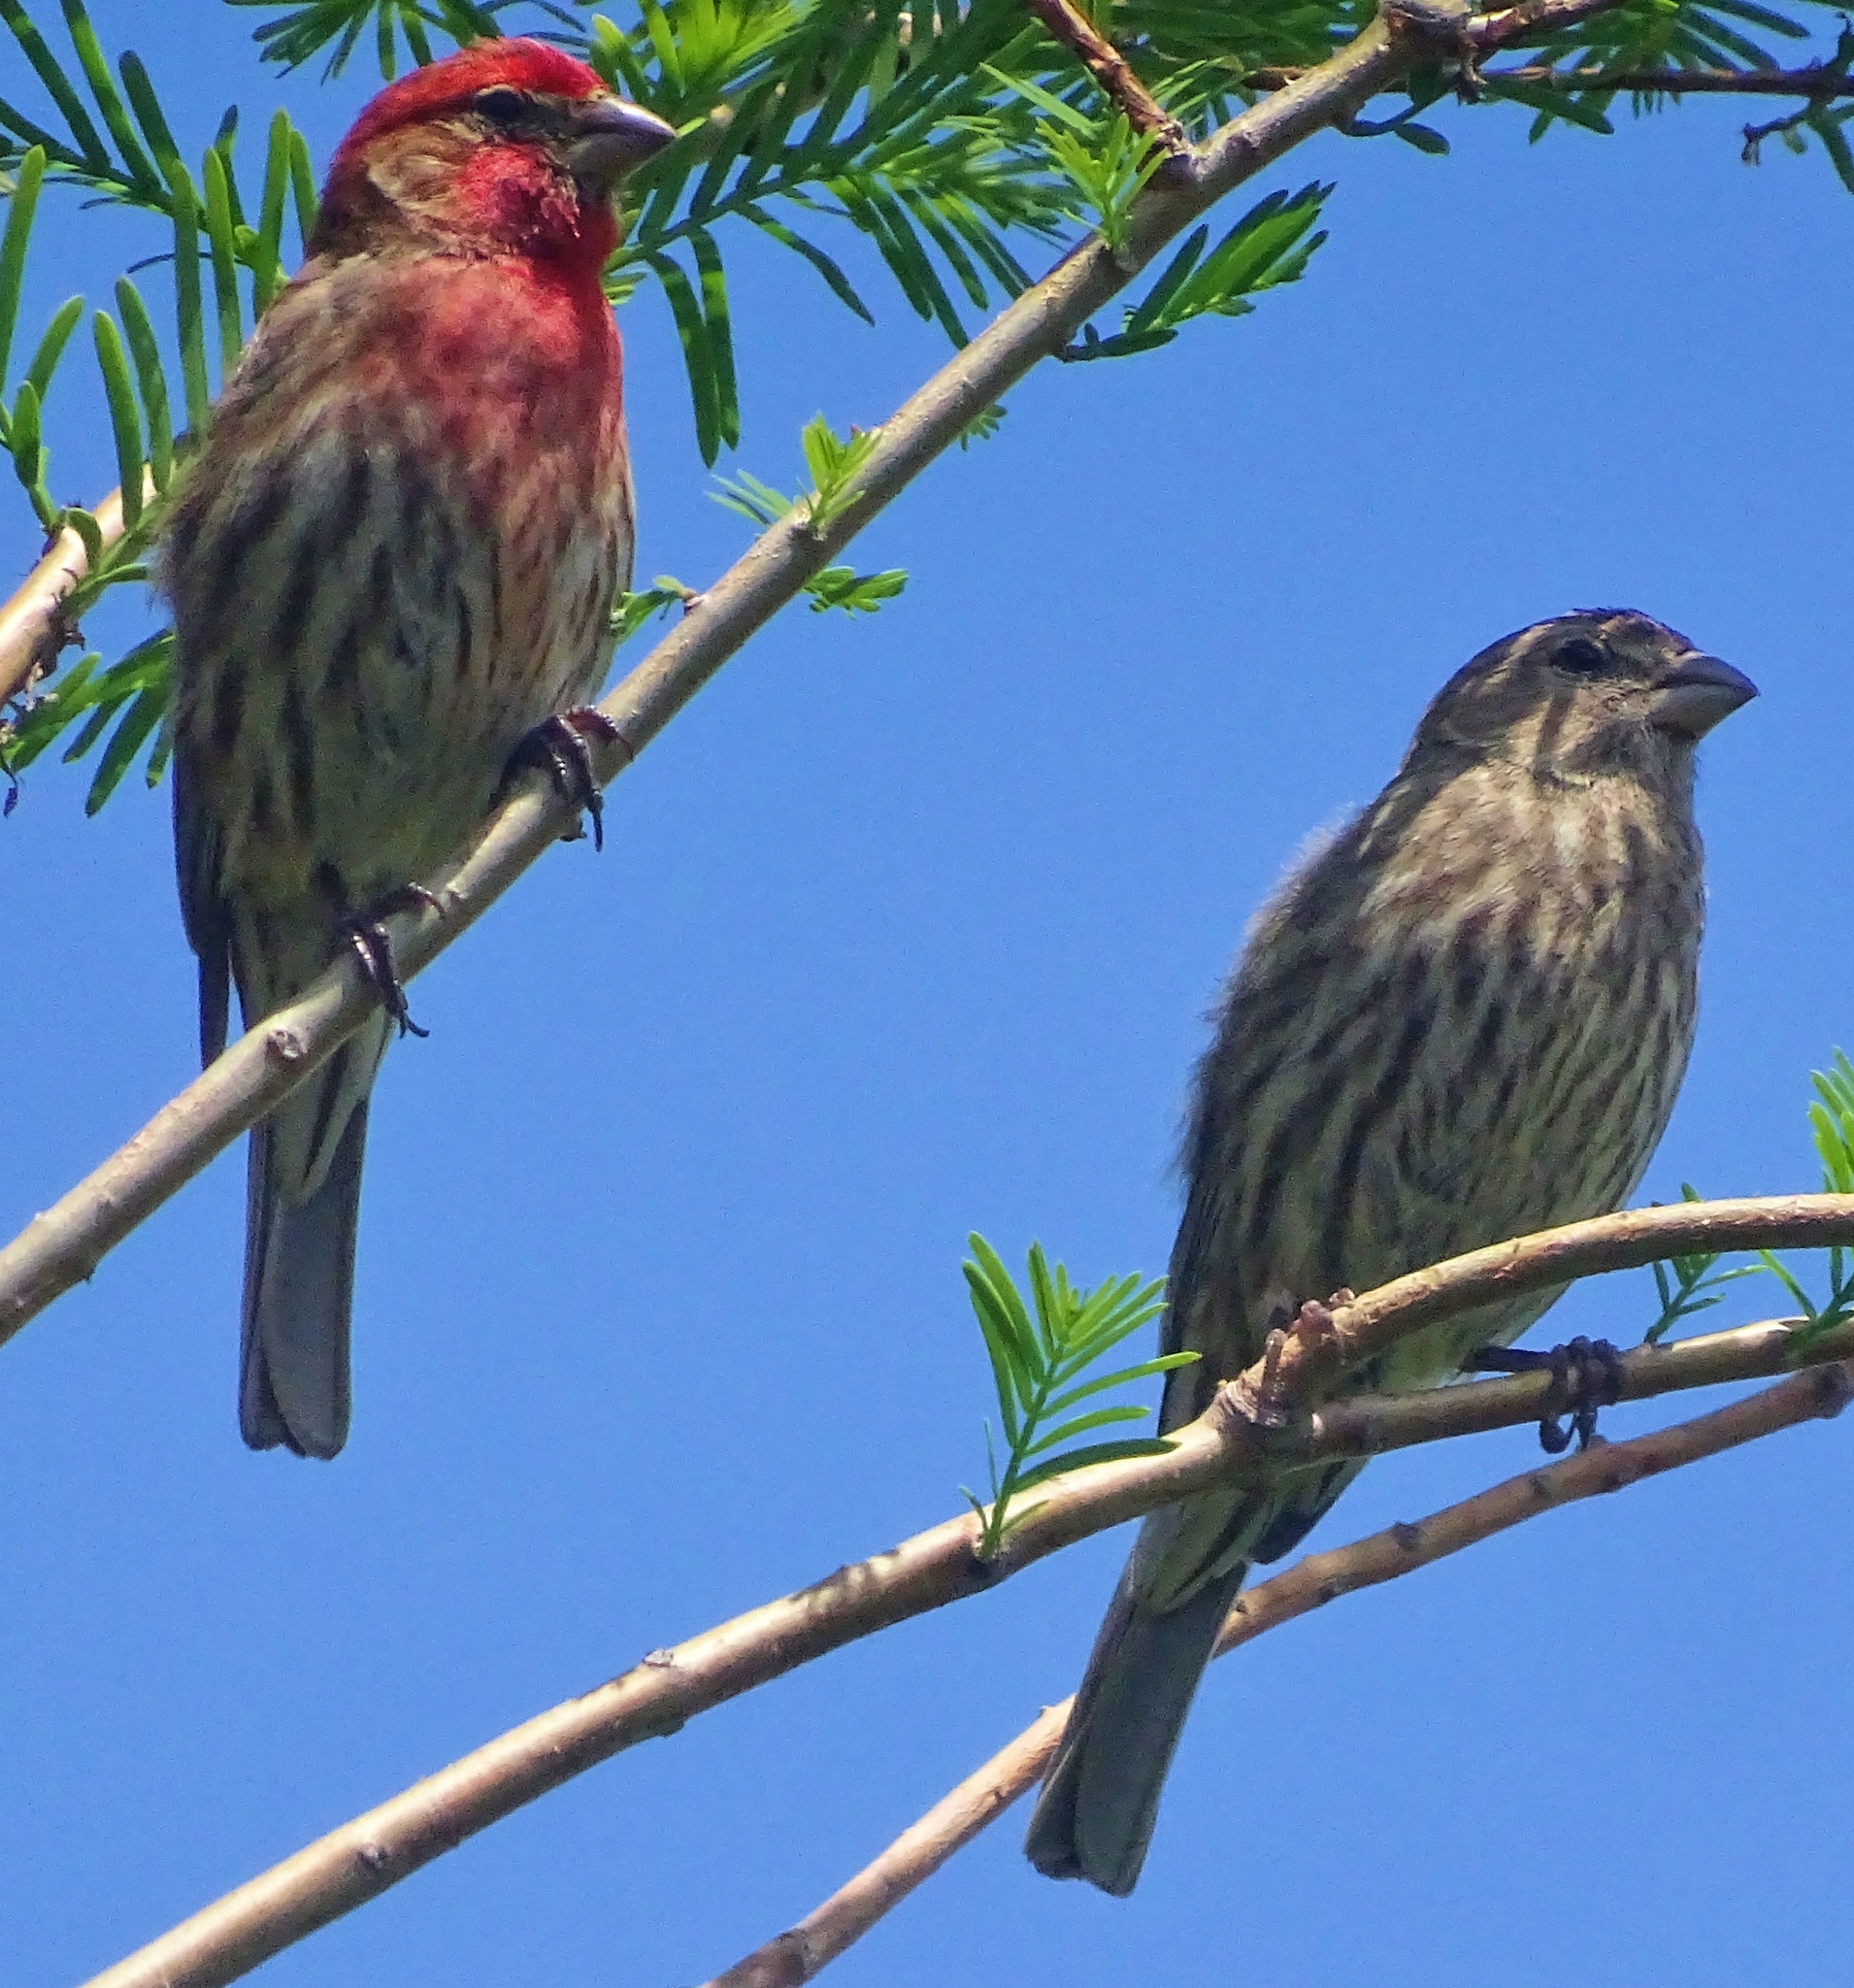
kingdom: Animalia
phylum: Chordata
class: Aves
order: Passeriformes
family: Fringillidae
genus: Haemorhous
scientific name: Haemorhous mexicanus
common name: House finch
